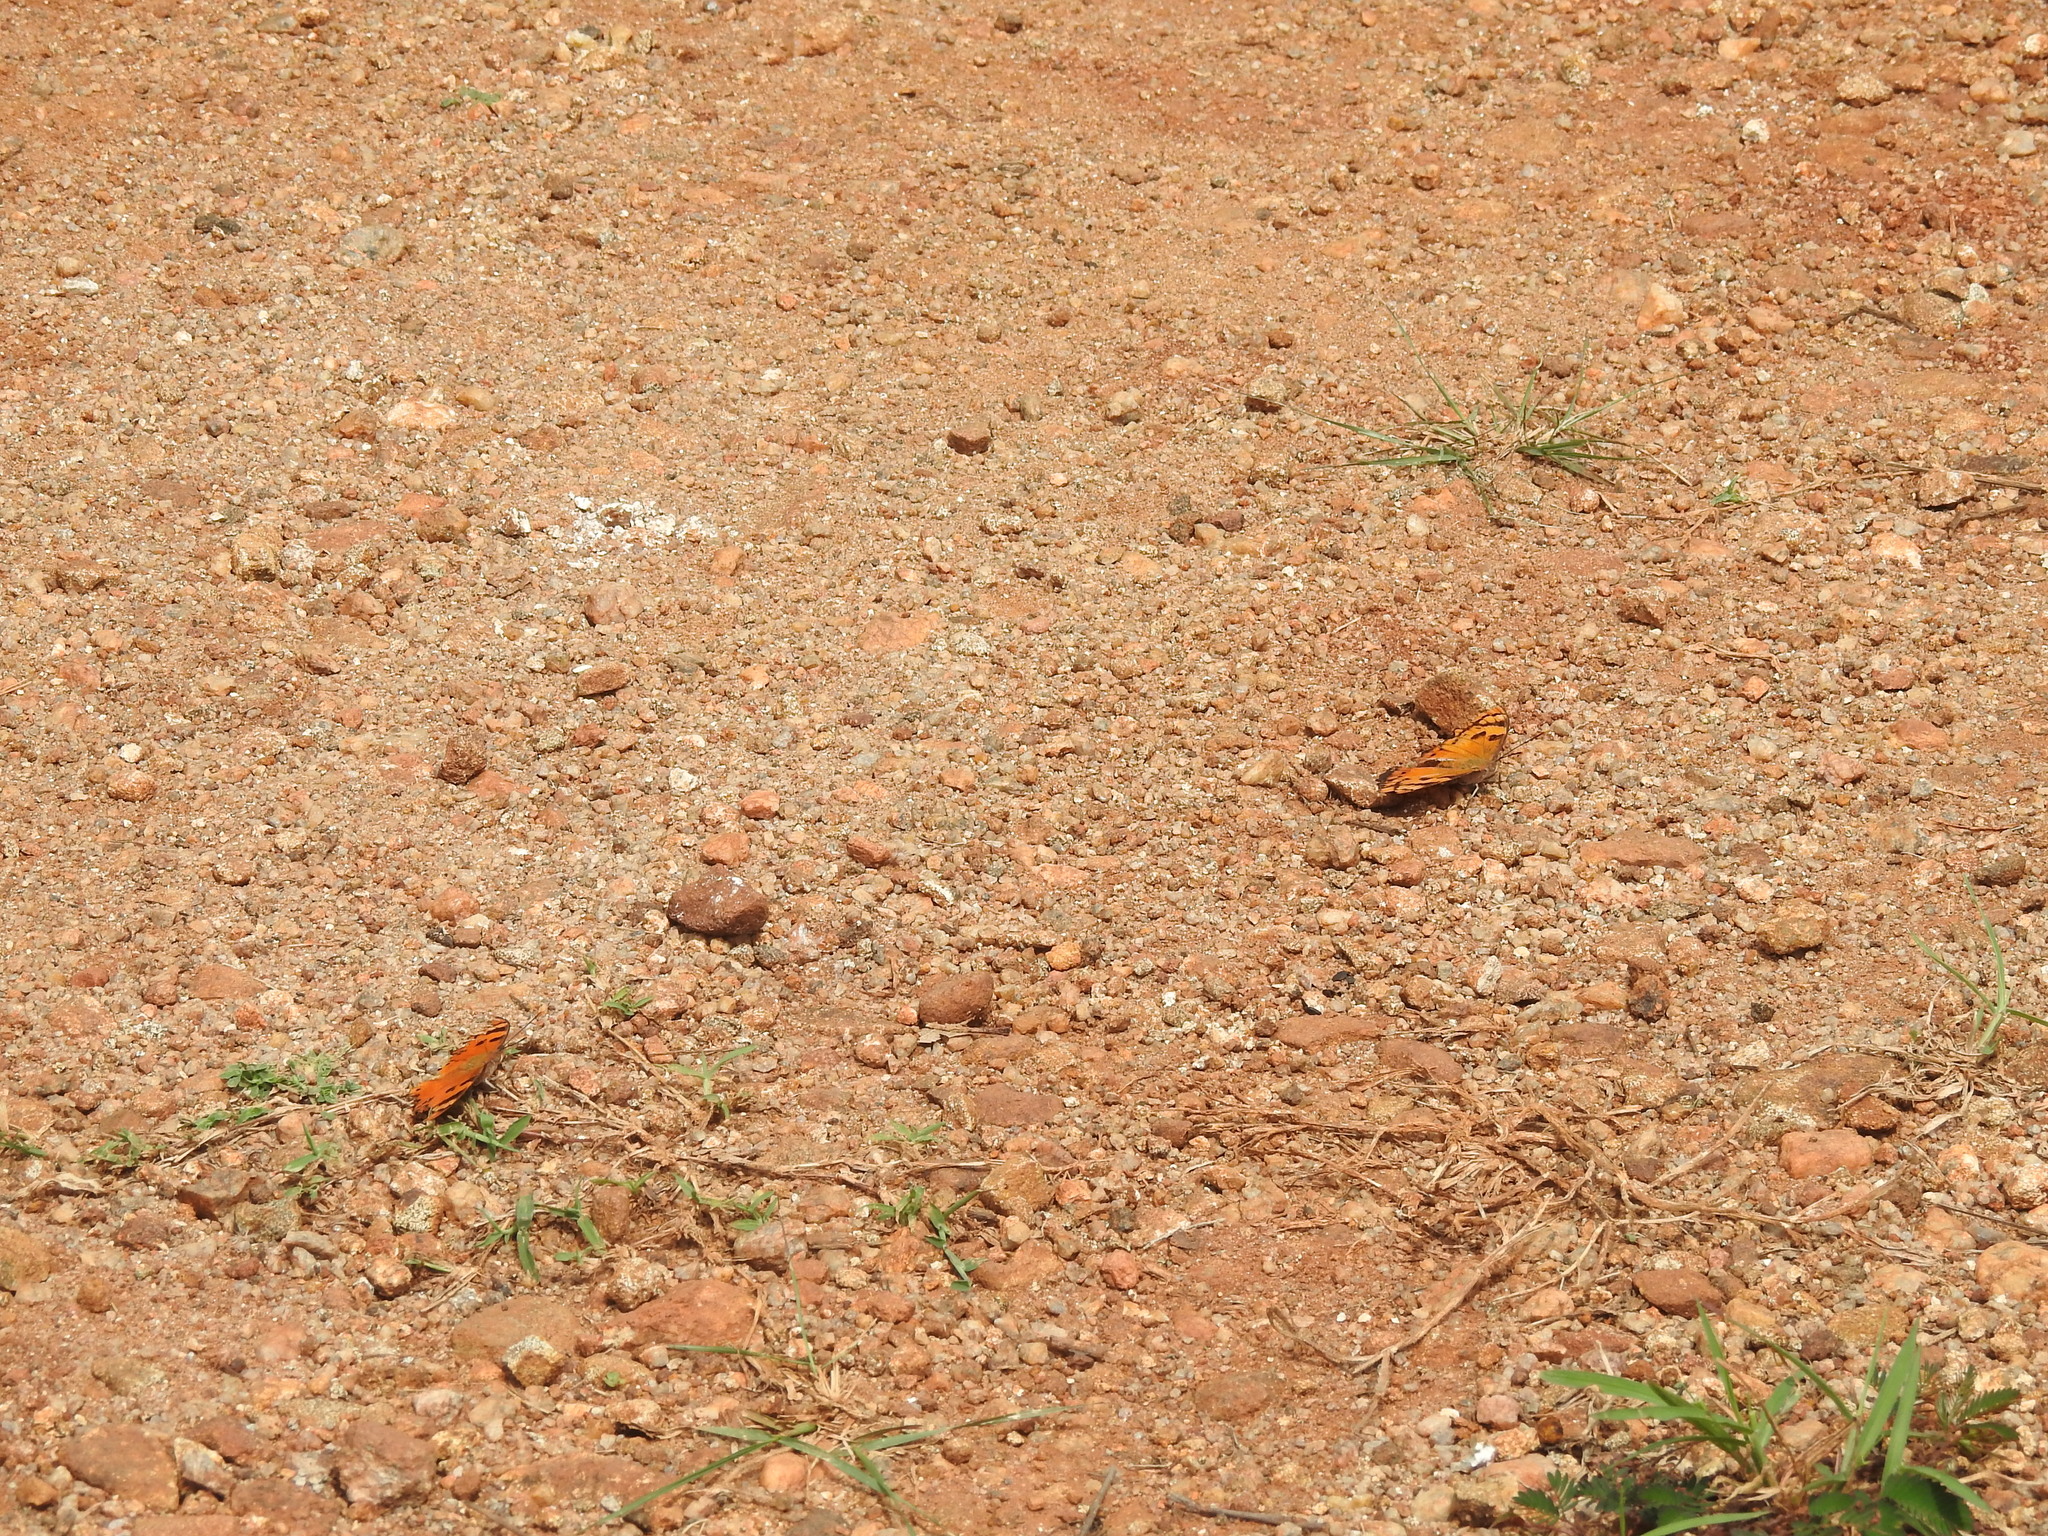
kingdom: Animalia
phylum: Arthropoda
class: Insecta
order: Lepidoptera
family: Nymphalidae
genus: Euthalia
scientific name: Euthalia nais
